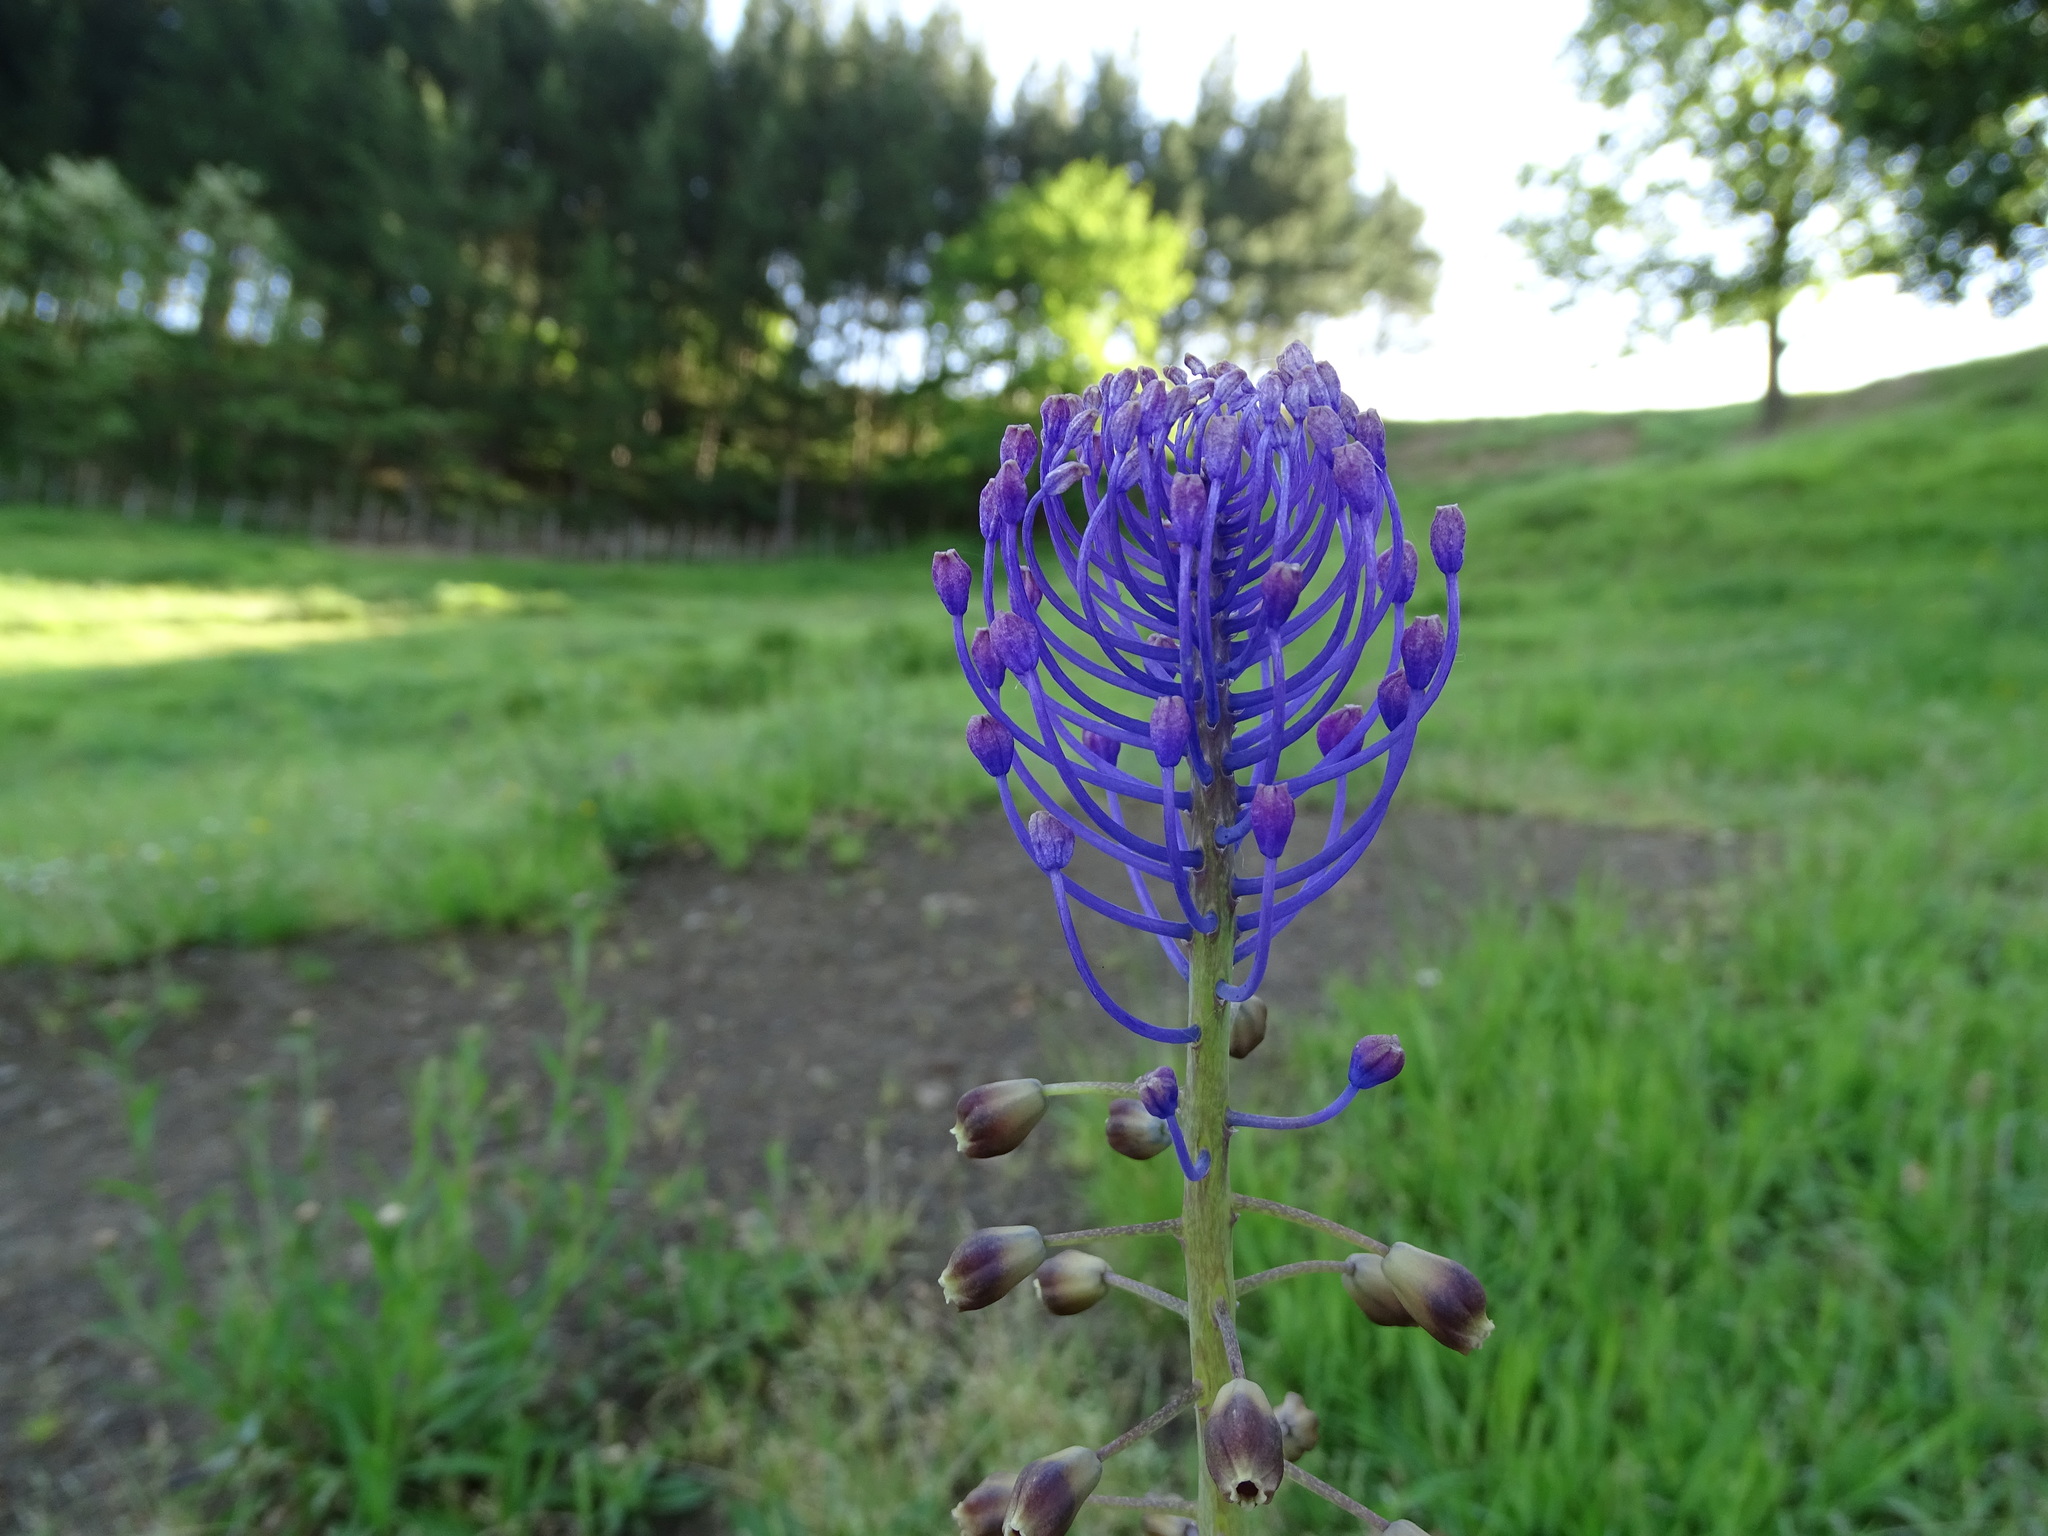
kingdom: Plantae
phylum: Tracheophyta
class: Liliopsida
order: Asparagales
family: Asparagaceae
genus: Muscari
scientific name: Muscari comosum
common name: Tassel hyacinth
